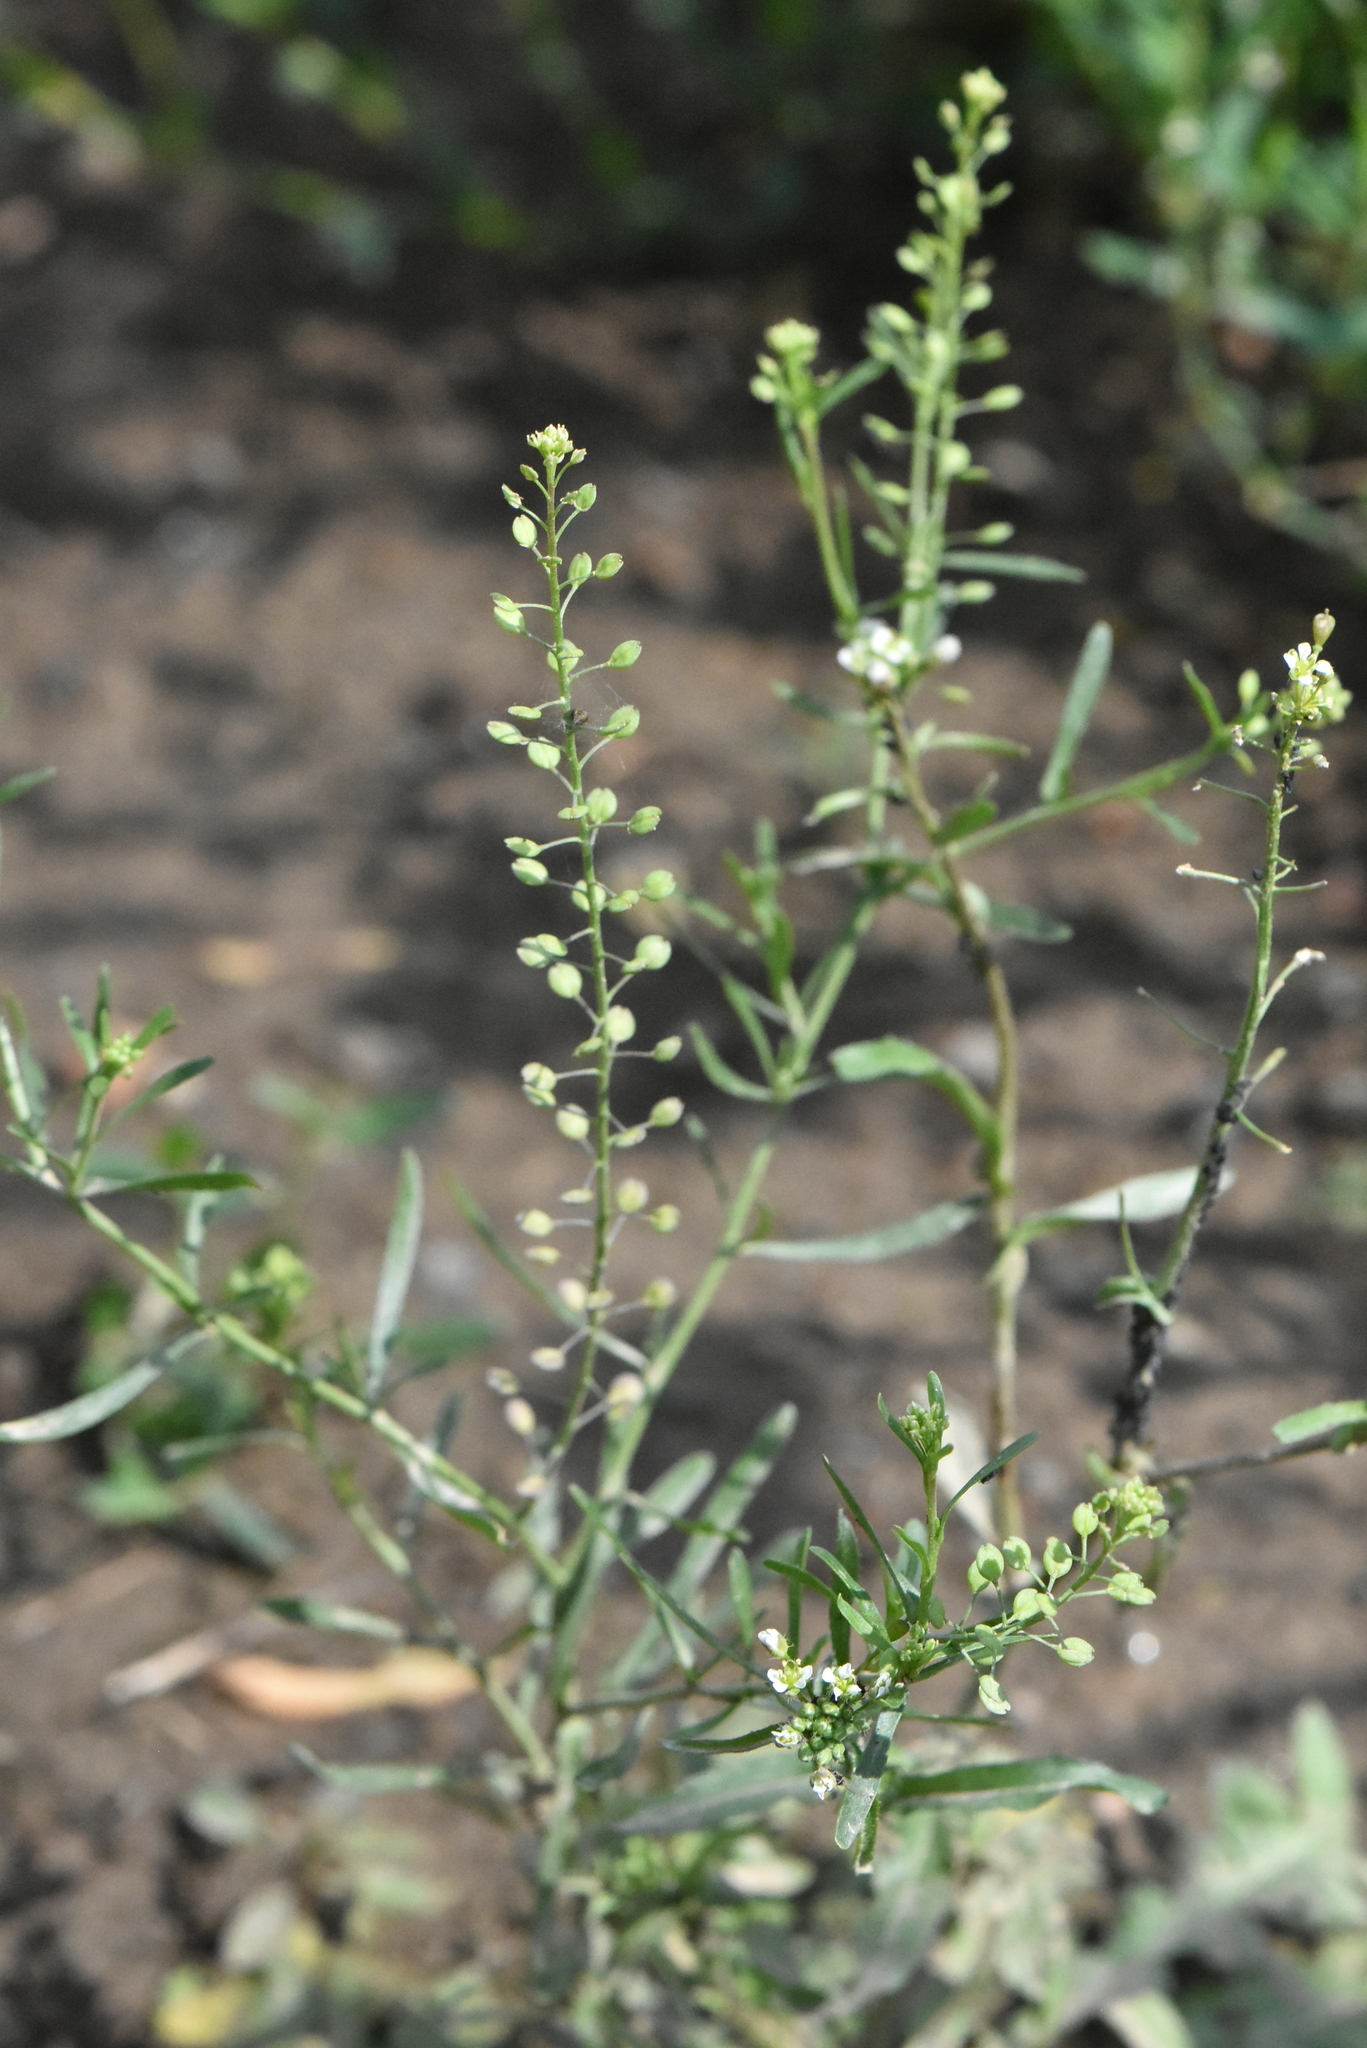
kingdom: Plantae
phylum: Tracheophyta
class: Magnoliopsida
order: Brassicales
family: Brassicaceae
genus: Lepidium
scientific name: Lepidium ruderale
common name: Narrow-leaved pepperwort
